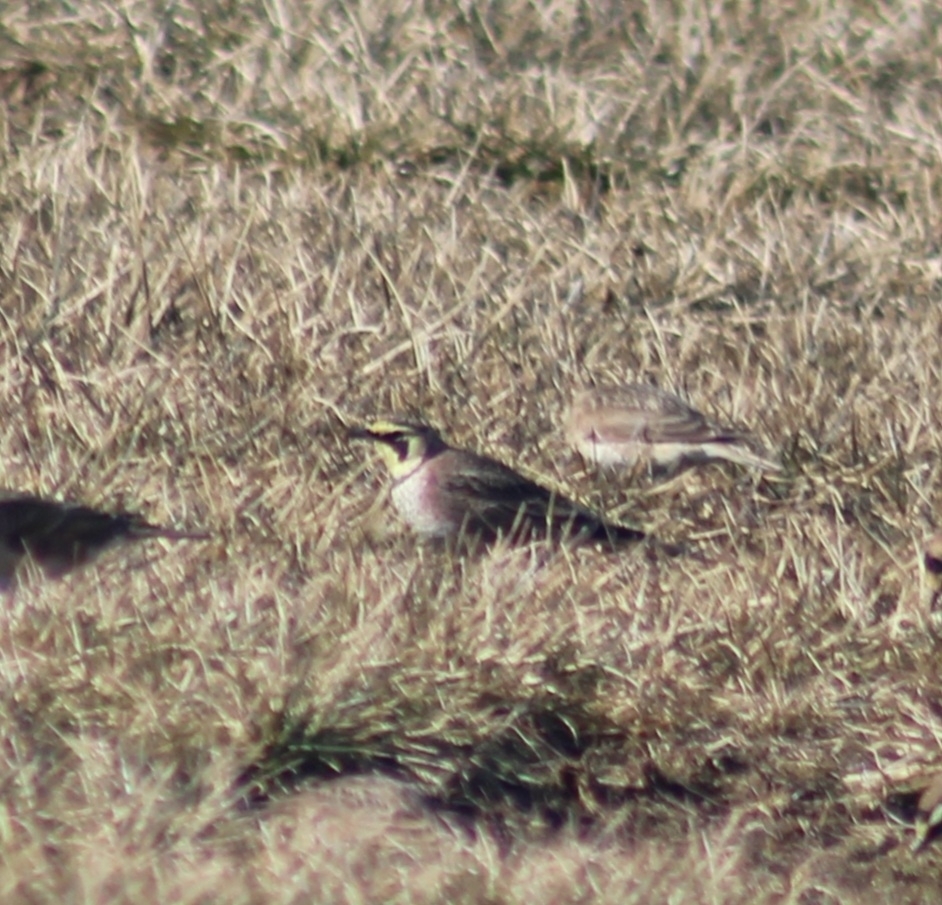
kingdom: Animalia
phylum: Chordata
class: Aves
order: Passeriformes
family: Alaudidae
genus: Eremophila
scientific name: Eremophila alpestris
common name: Horned lark
